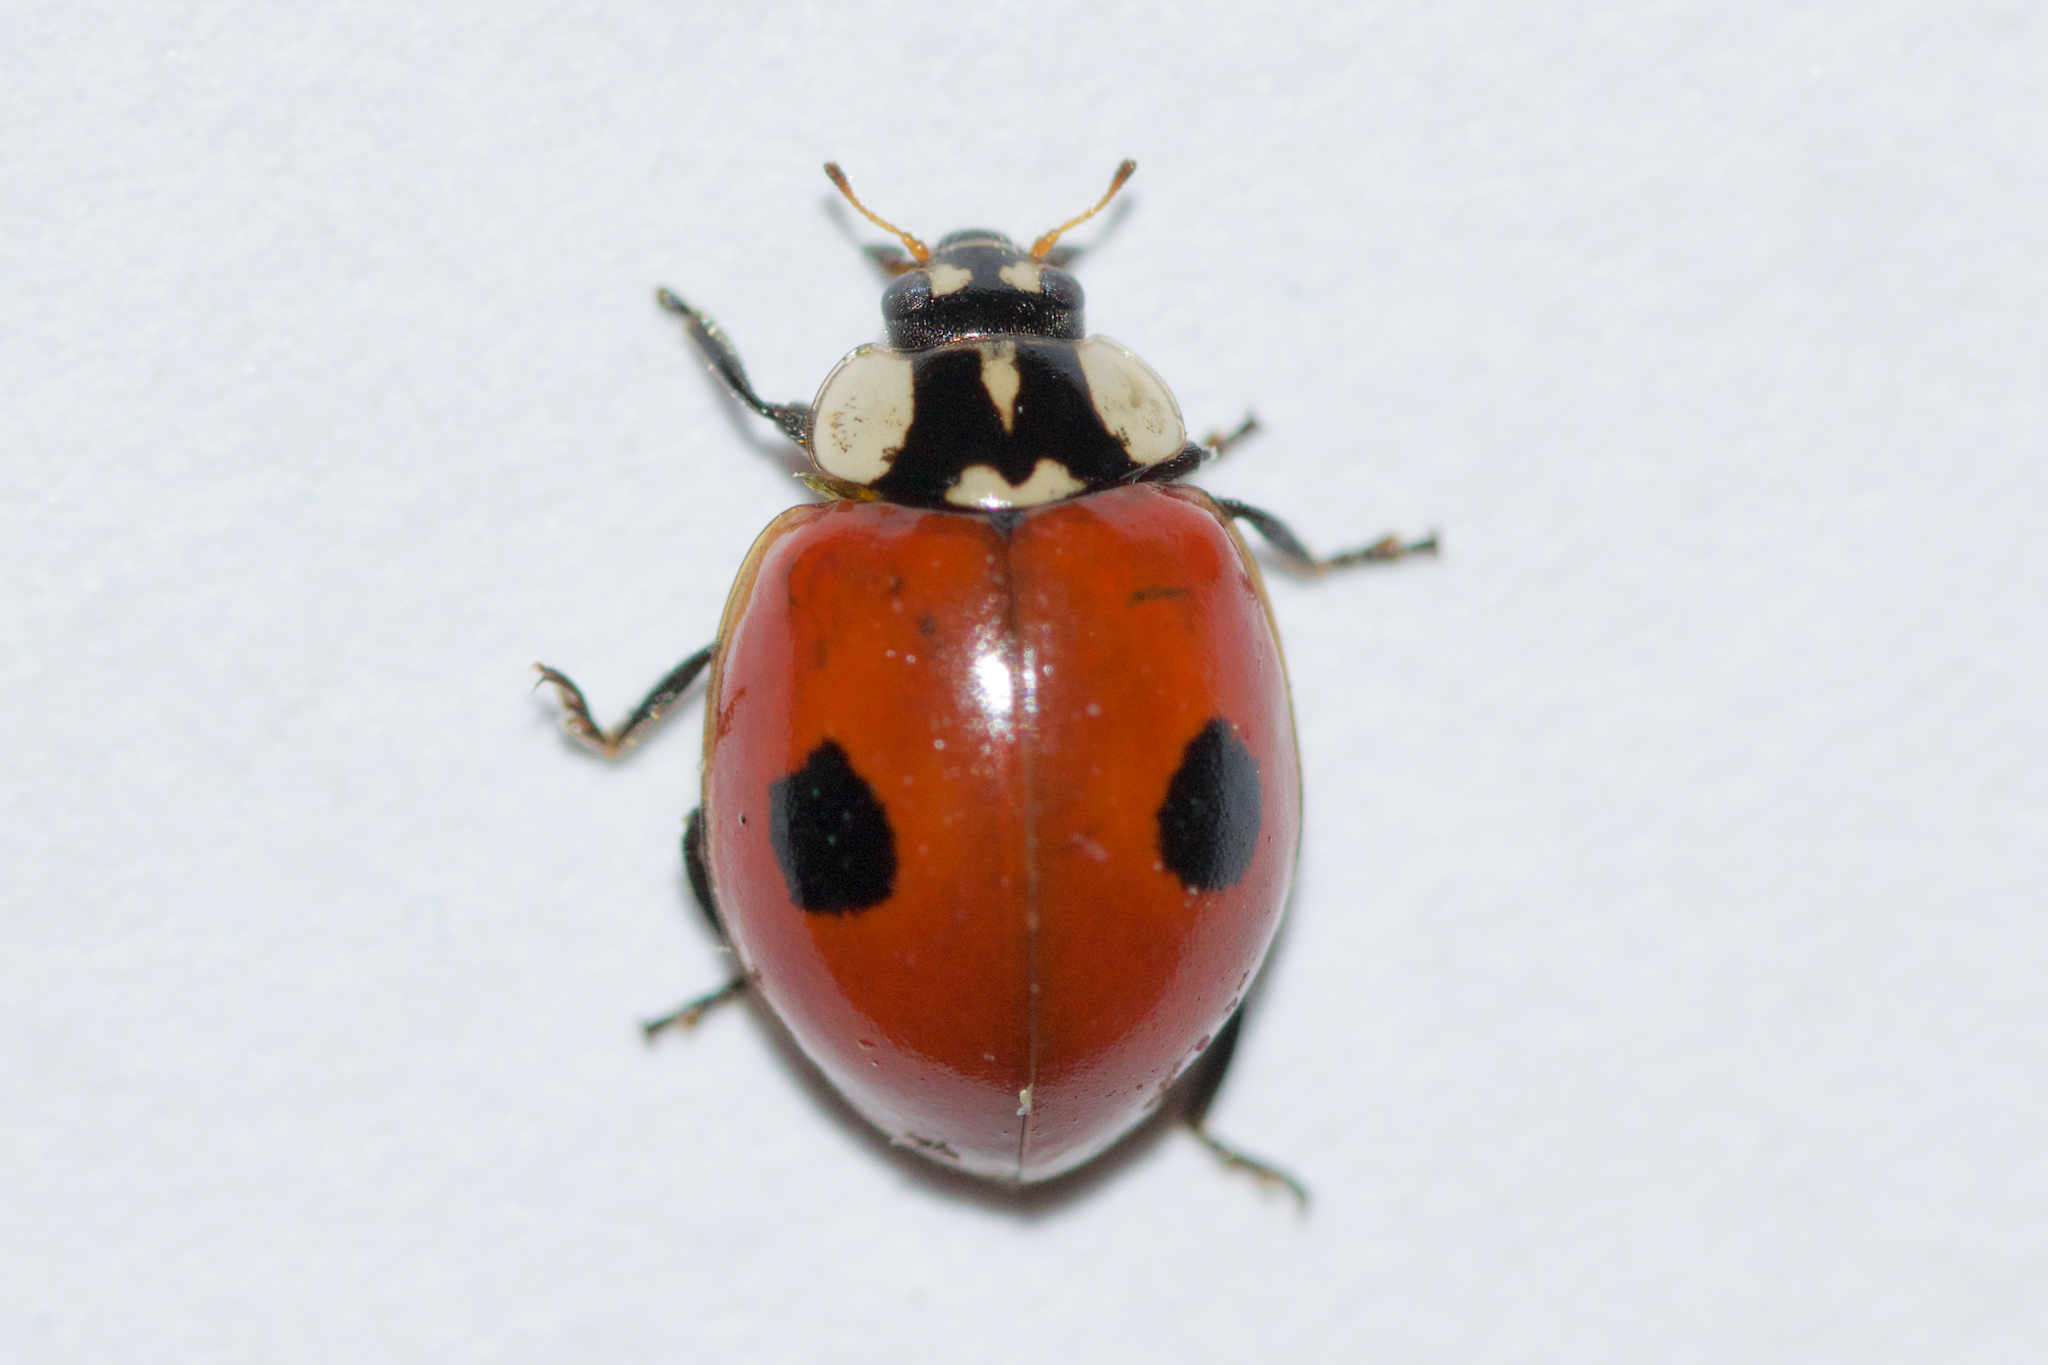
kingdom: Animalia
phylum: Arthropoda
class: Insecta
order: Coleoptera
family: Coccinellidae
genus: Adalia
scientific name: Adalia bipunctata
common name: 2-spot ladybird
